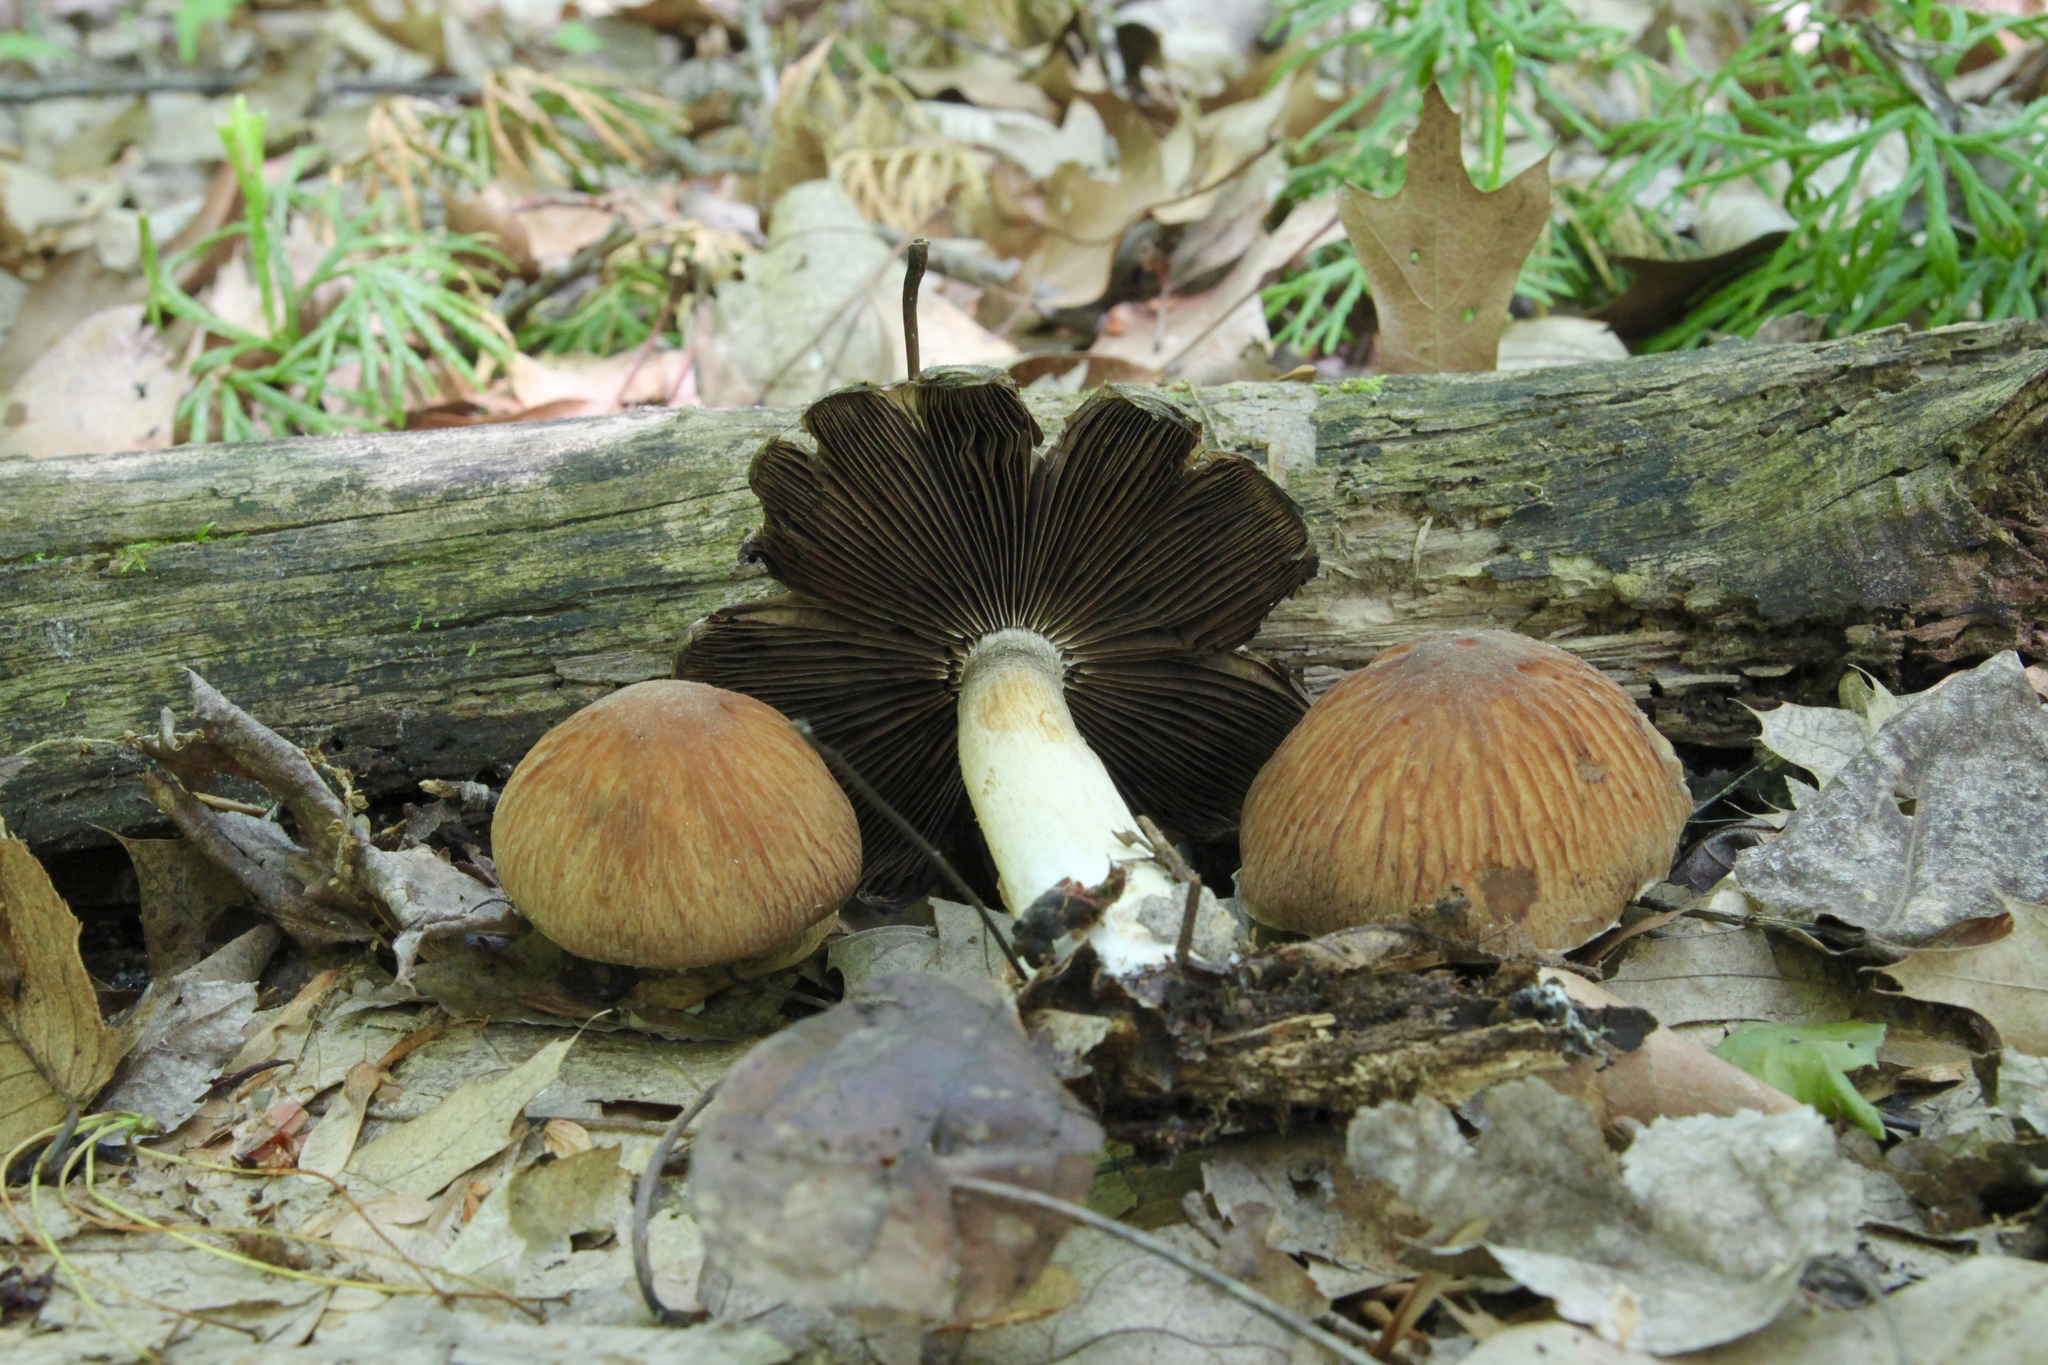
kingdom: Fungi
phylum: Basidiomycota
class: Agaricomycetes
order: Agaricales
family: Psathyrellaceae
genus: Typhrasa
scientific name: Typhrasa gossypina
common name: Wrinkled psathyrella
